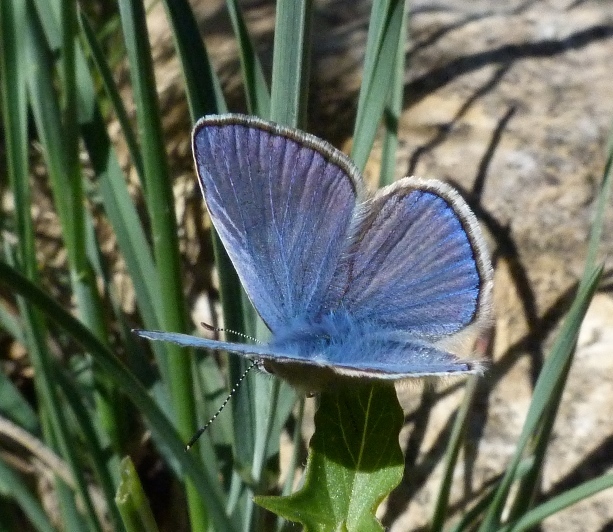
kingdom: Animalia
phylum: Arthropoda
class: Insecta
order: Lepidoptera
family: Lycaenidae
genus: Polyommatus
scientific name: Polyommatus thersites
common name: Chapman's blue
